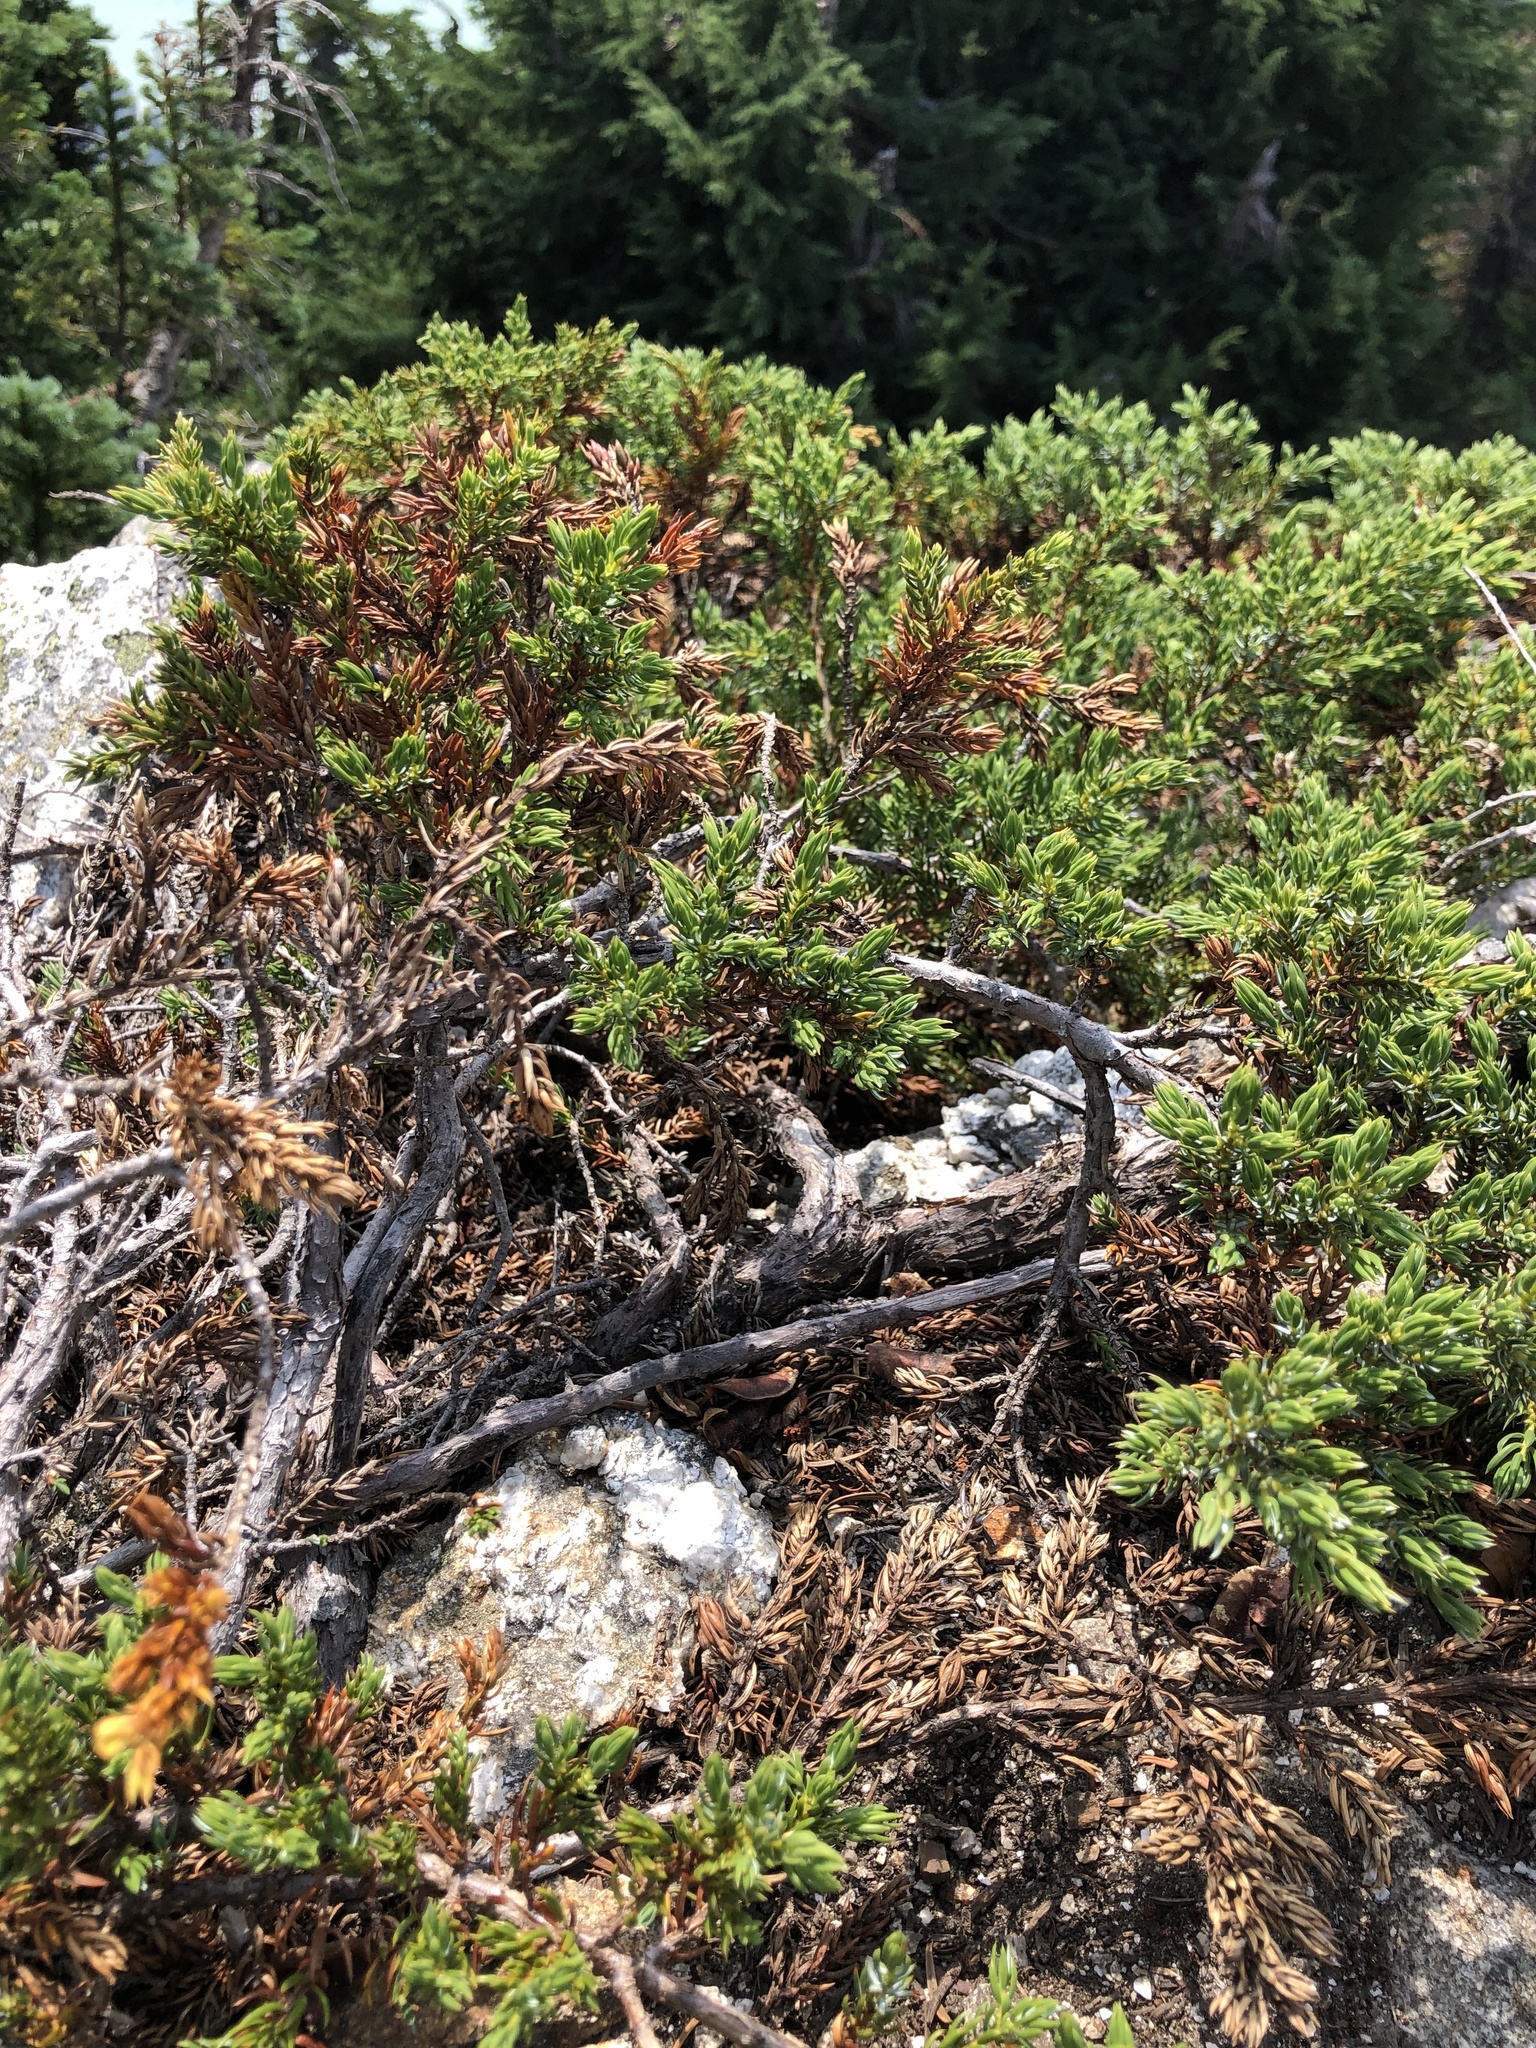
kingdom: Plantae
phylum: Tracheophyta
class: Pinopsida
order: Pinales
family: Cupressaceae
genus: Juniperus
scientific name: Juniperus communis
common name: Common juniper
